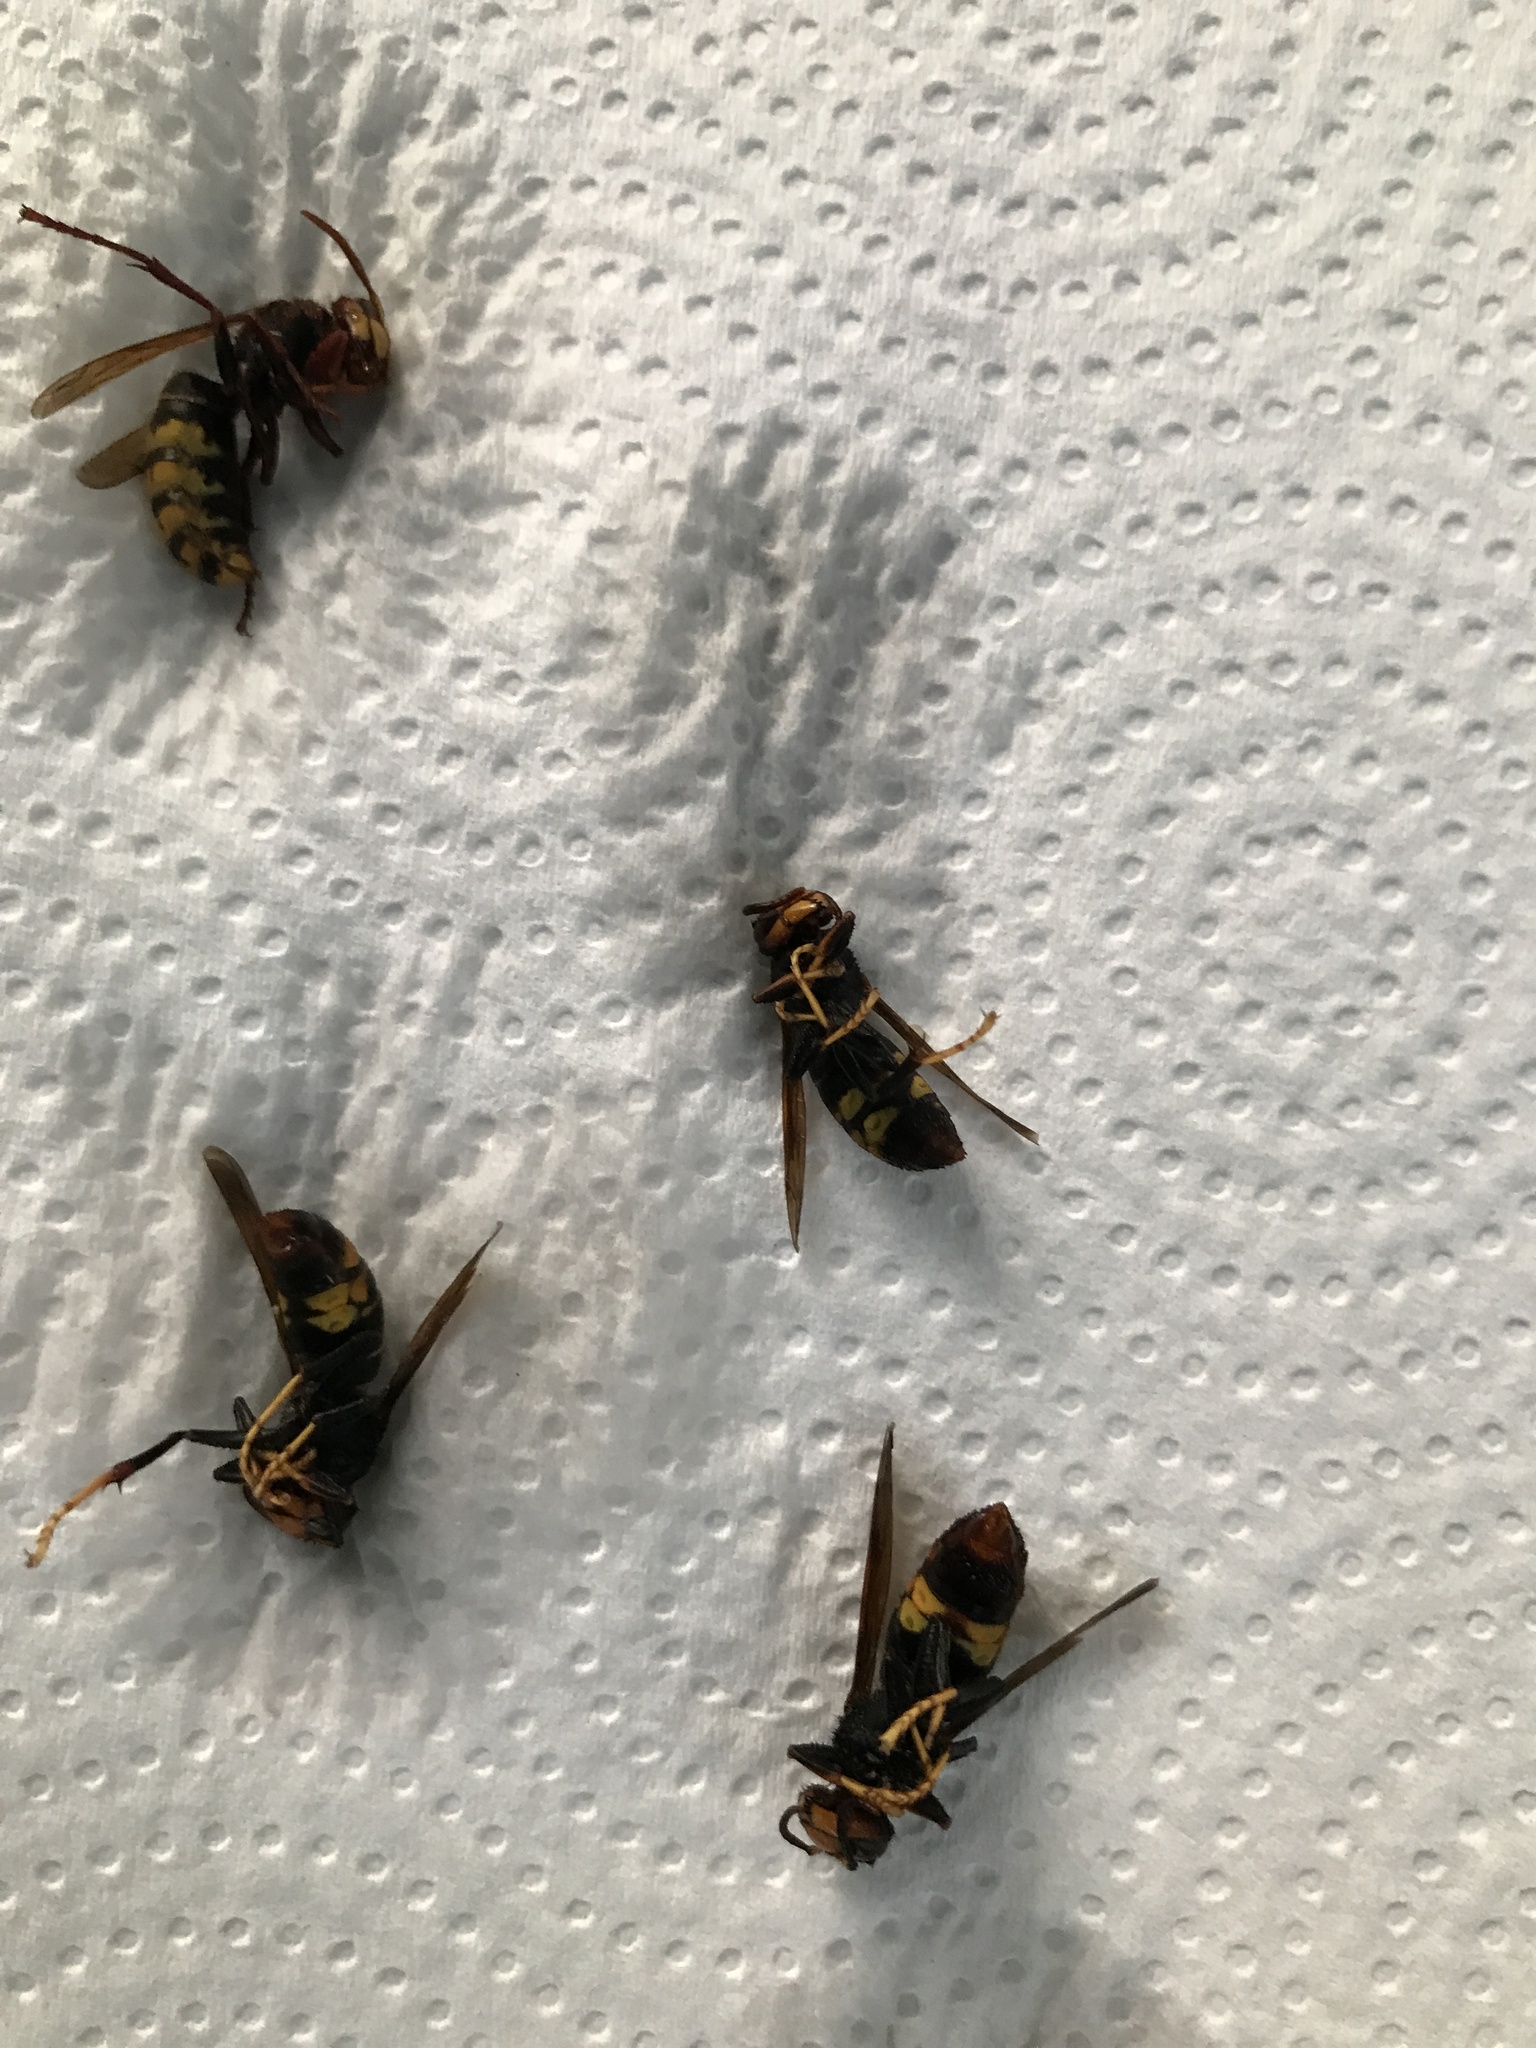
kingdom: Animalia
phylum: Arthropoda
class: Insecta
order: Hymenoptera
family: Vespidae
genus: Vespa
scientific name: Vespa velutina
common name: Asian hornet
